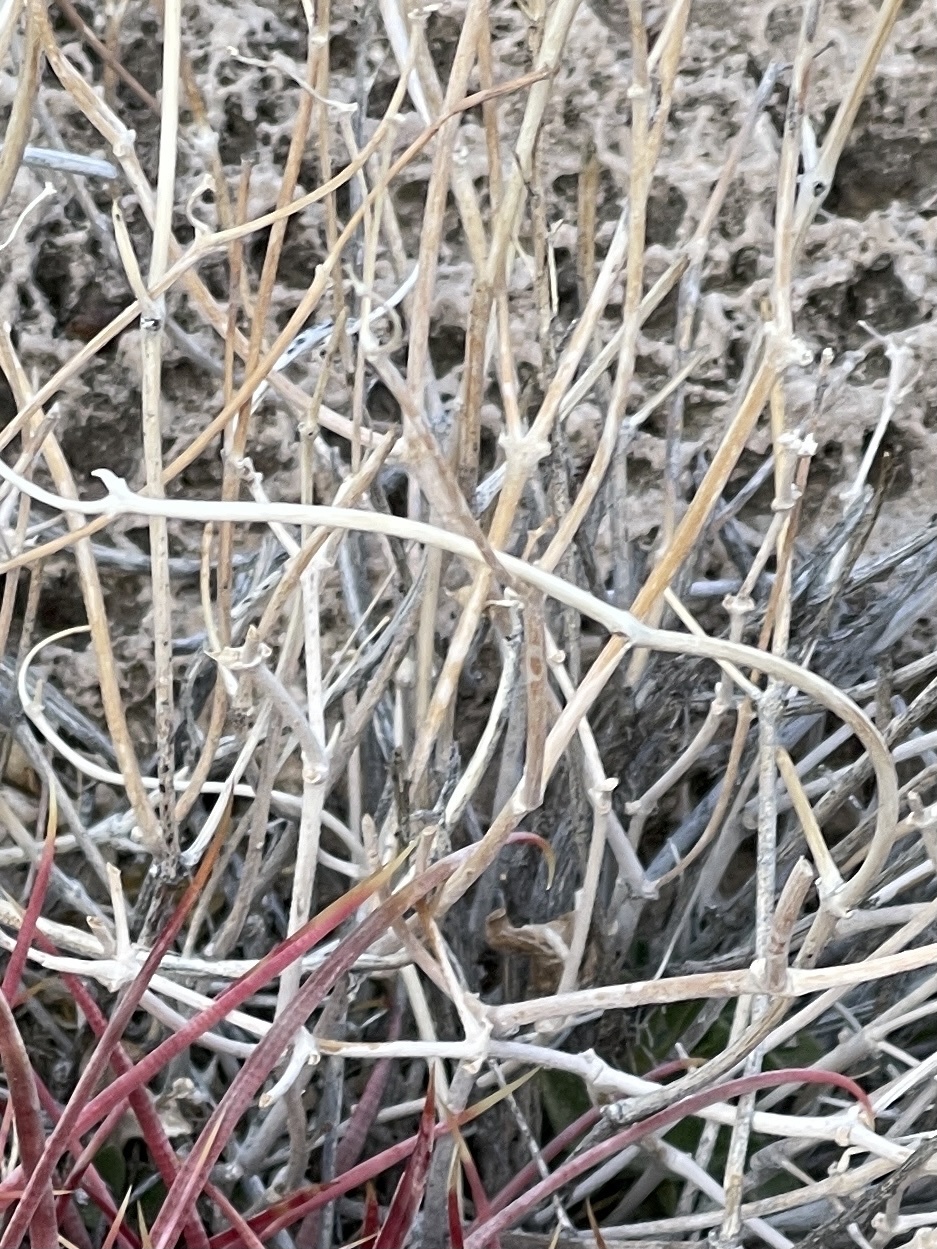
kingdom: Plantae
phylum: Tracheophyta
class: Gnetopsida
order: Ephedrales
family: Ephedraceae
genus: Ephedra
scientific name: Ephedra nevadensis
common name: Gray ephedra
